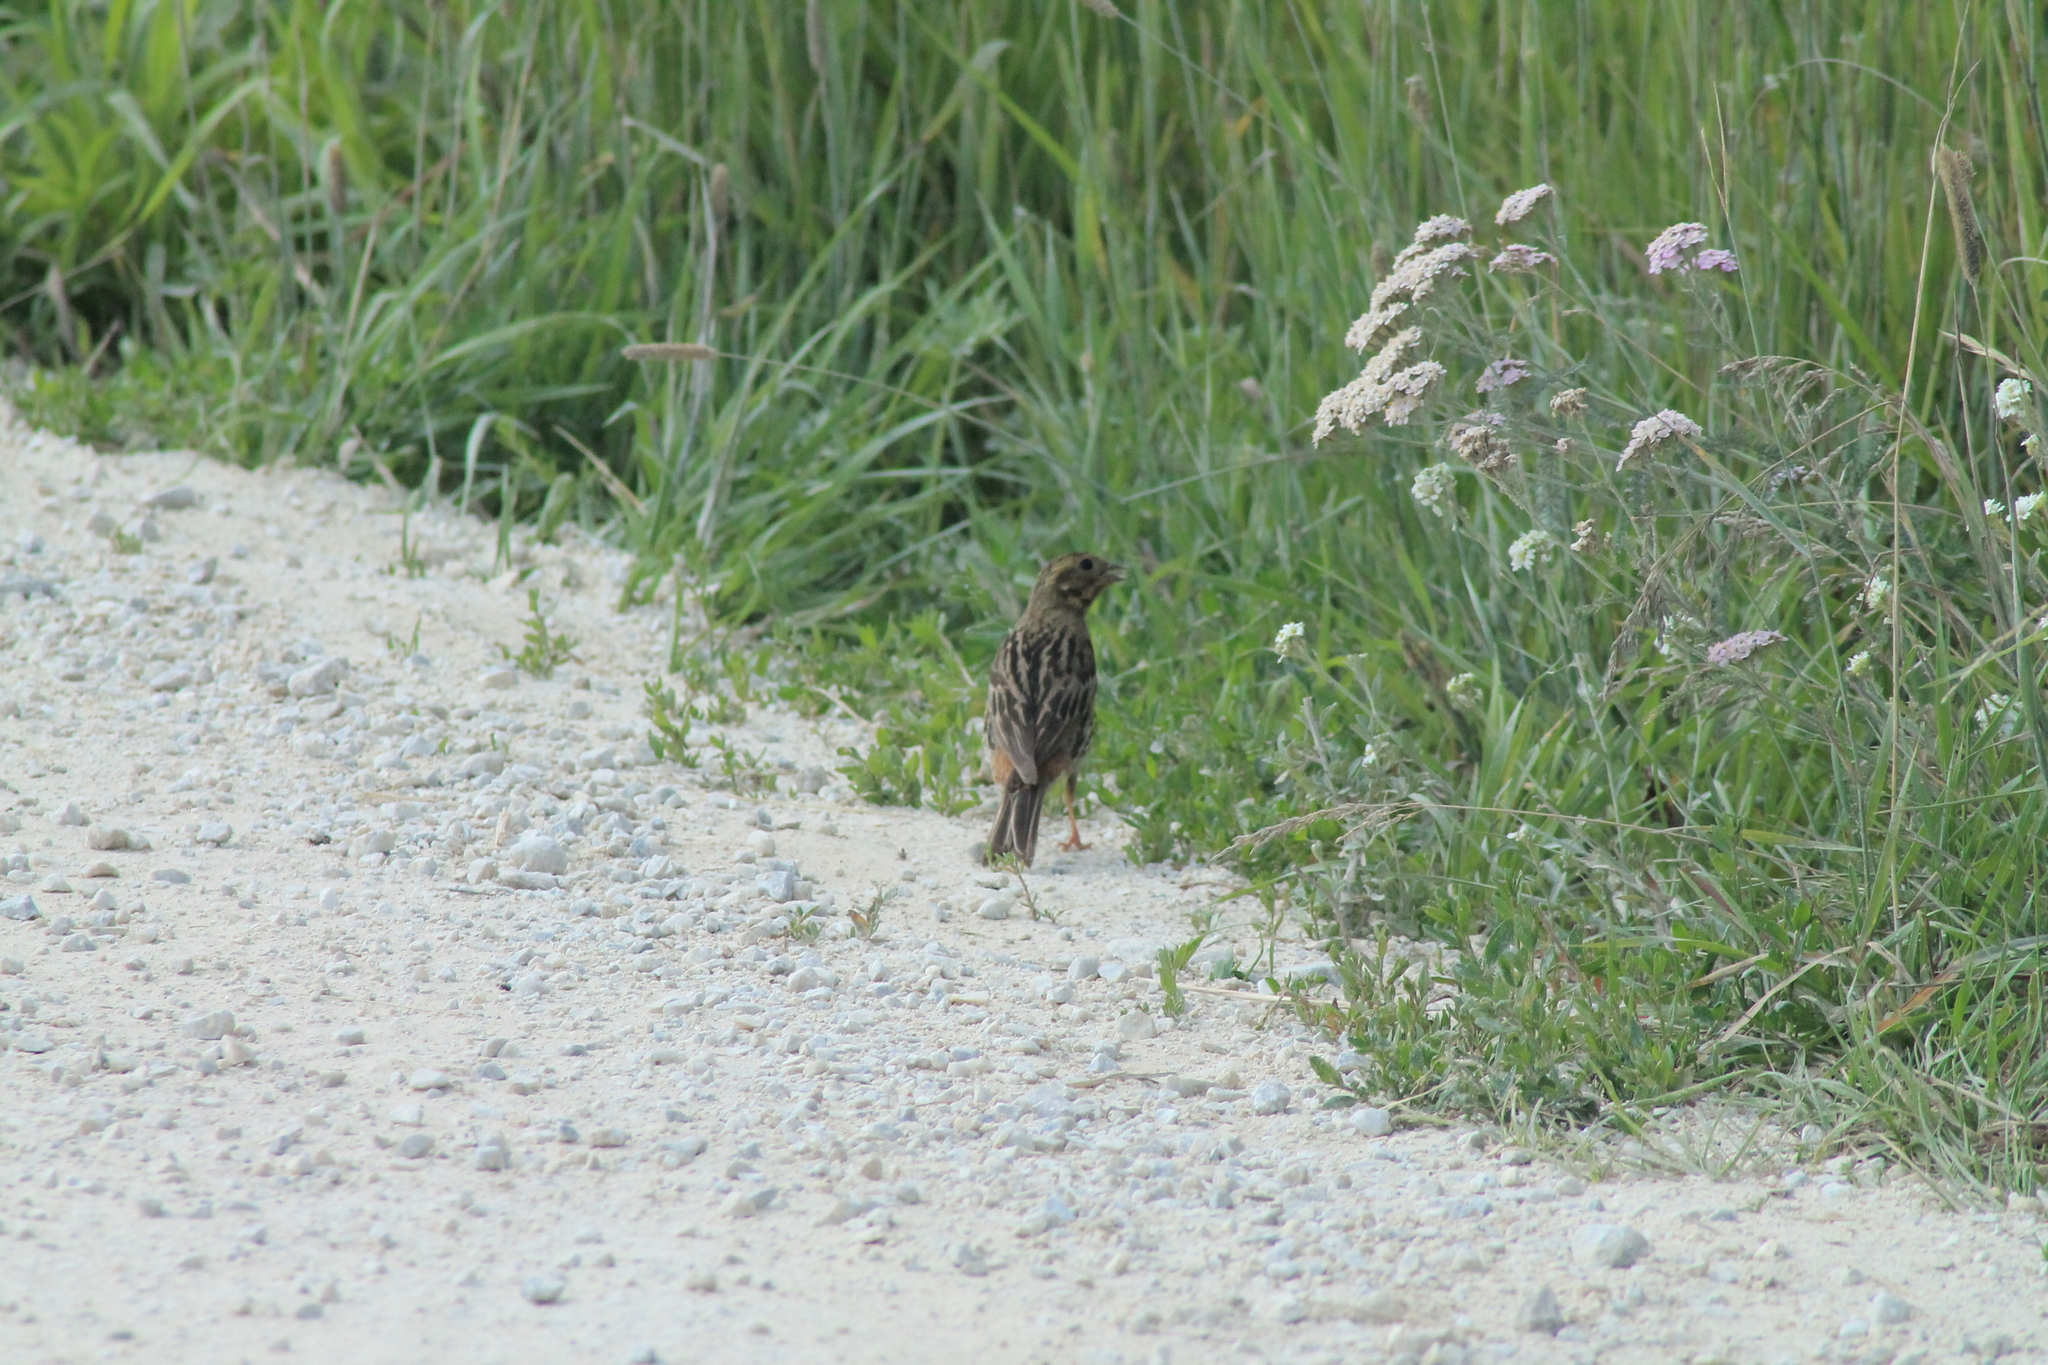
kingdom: Animalia
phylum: Chordata
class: Aves
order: Passeriformes
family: Emberizidae
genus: Emberiza
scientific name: Emberiza citrinella
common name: Yellowhammer
